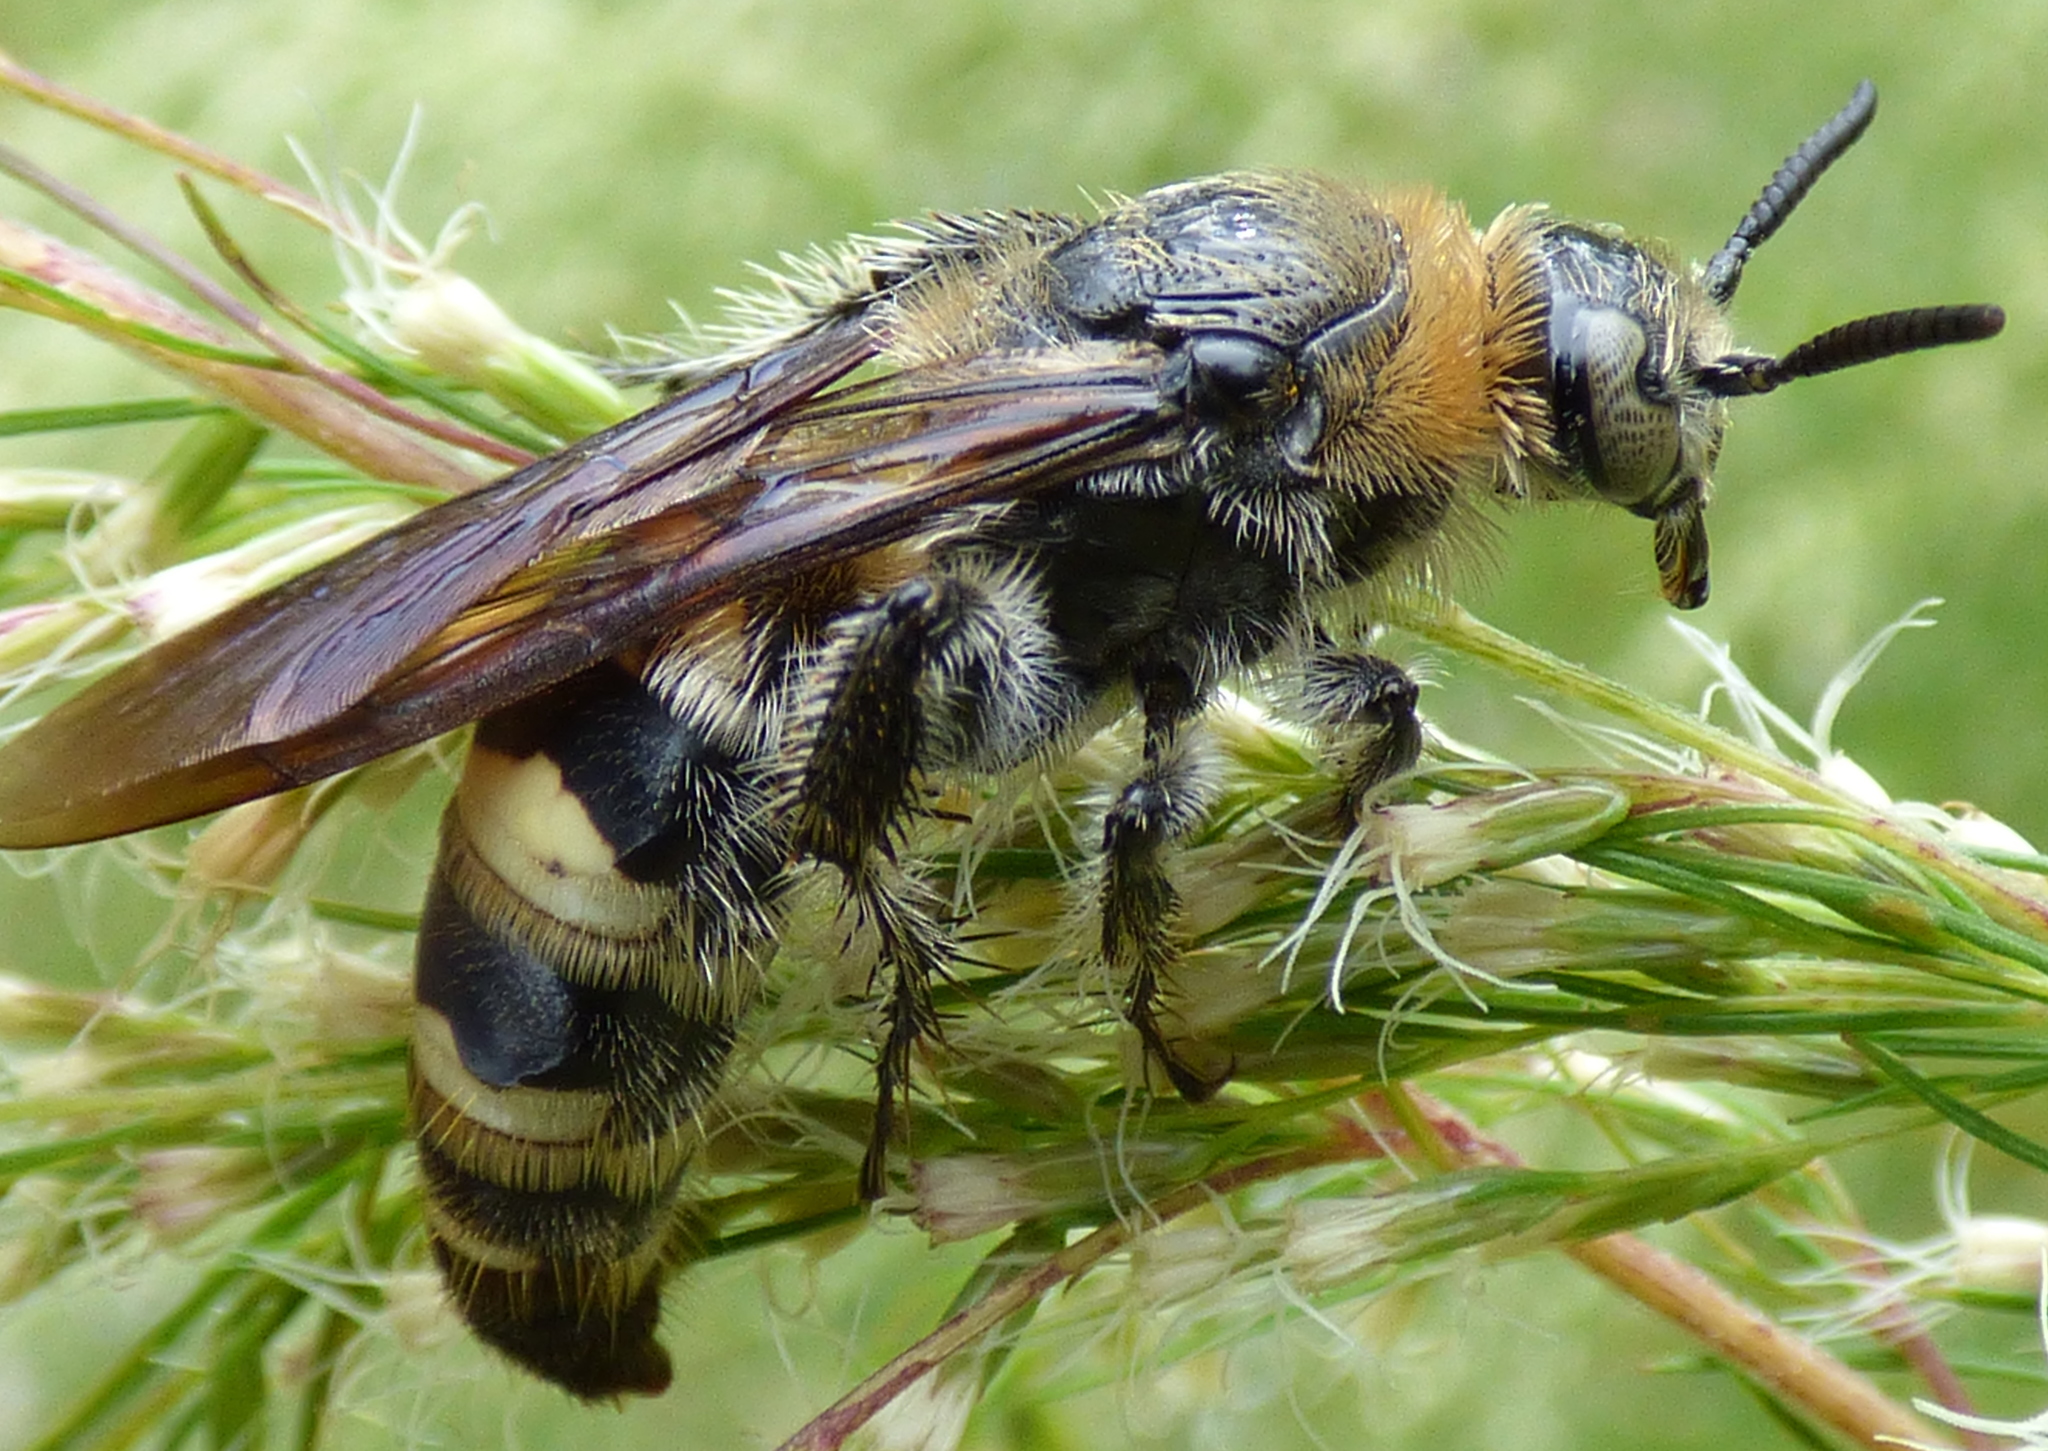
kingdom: Animalia
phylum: Arthropoda
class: Insecta
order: Hymenoptera
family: Scoliidae
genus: Dielis
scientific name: Dielis
